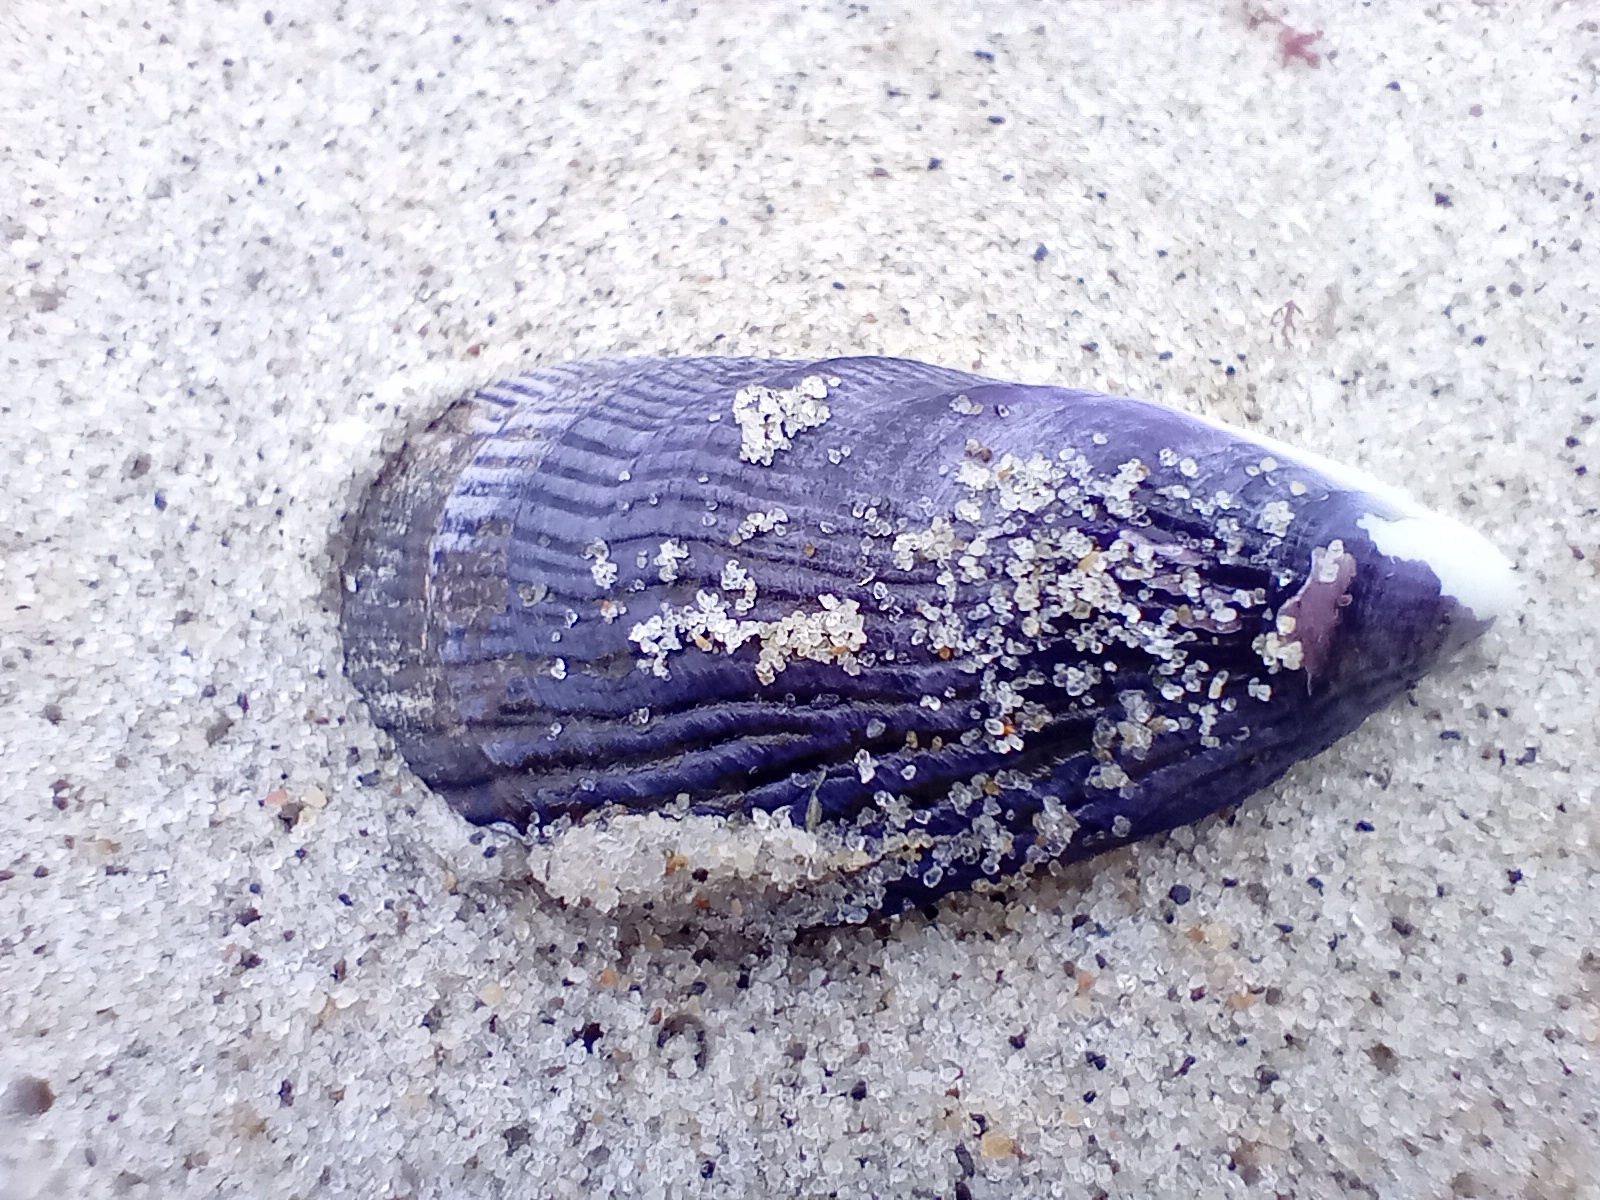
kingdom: Animalia
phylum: Mollusca
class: Bivalvia
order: Mytilida
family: Mytilidae
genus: Aulacomya
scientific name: Aulacomya maoriana
